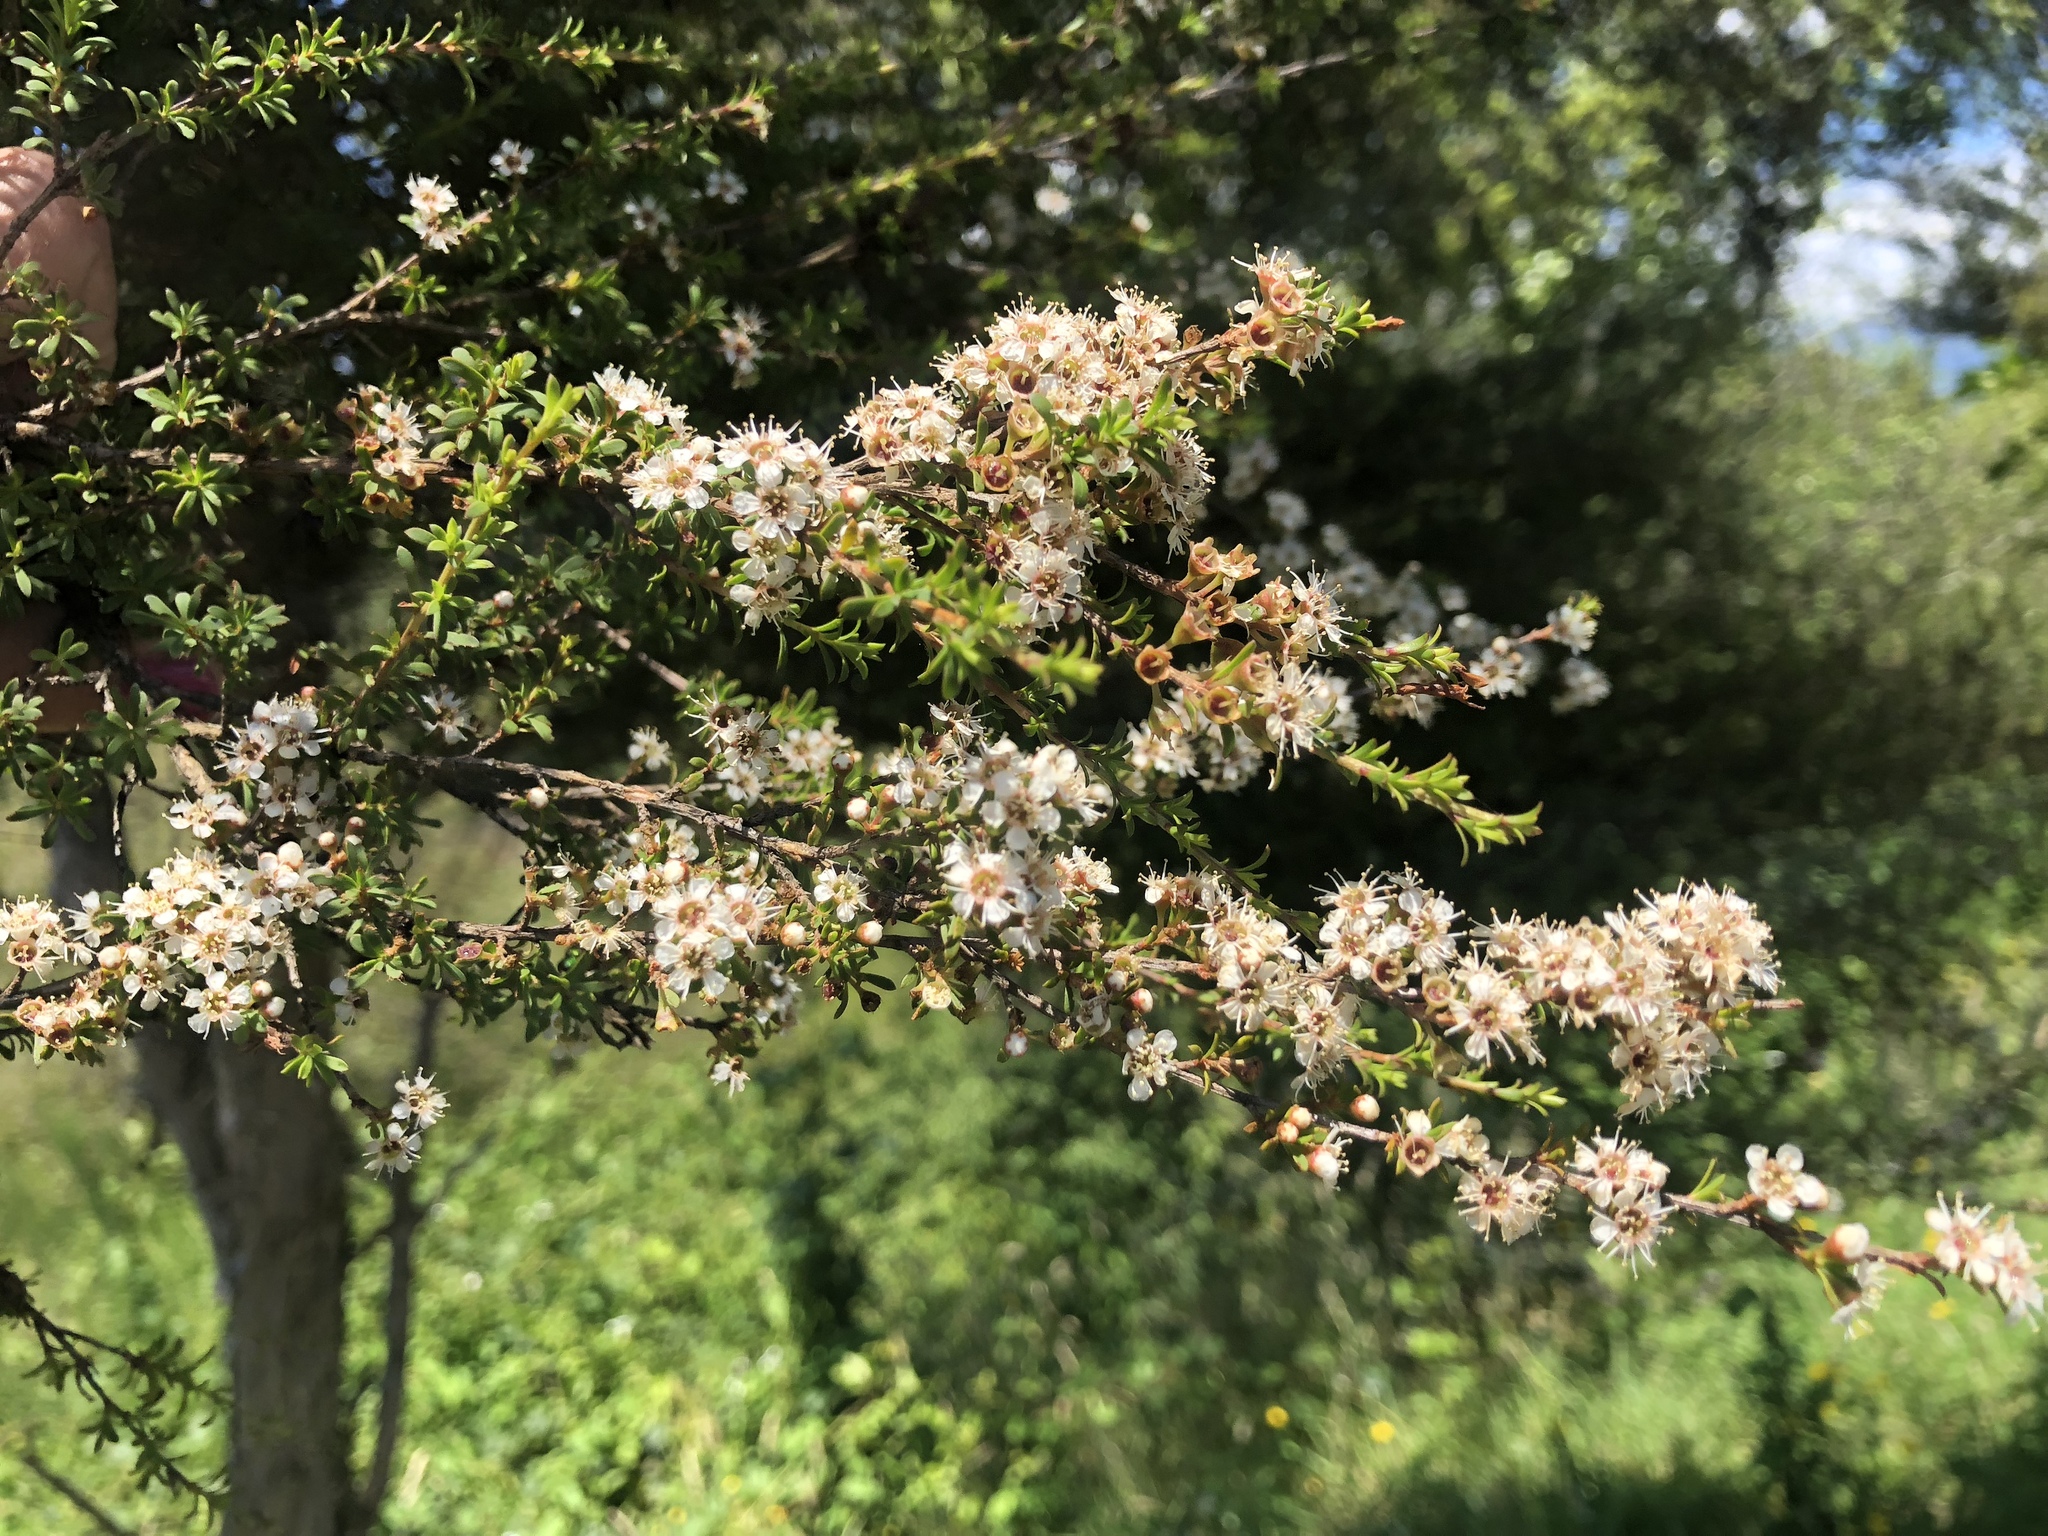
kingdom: Plantae
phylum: Tracheophyta
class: Magnoliopsida
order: Myrtales
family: Myrtaceae
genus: Kunzea
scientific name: Kunzea robusta
